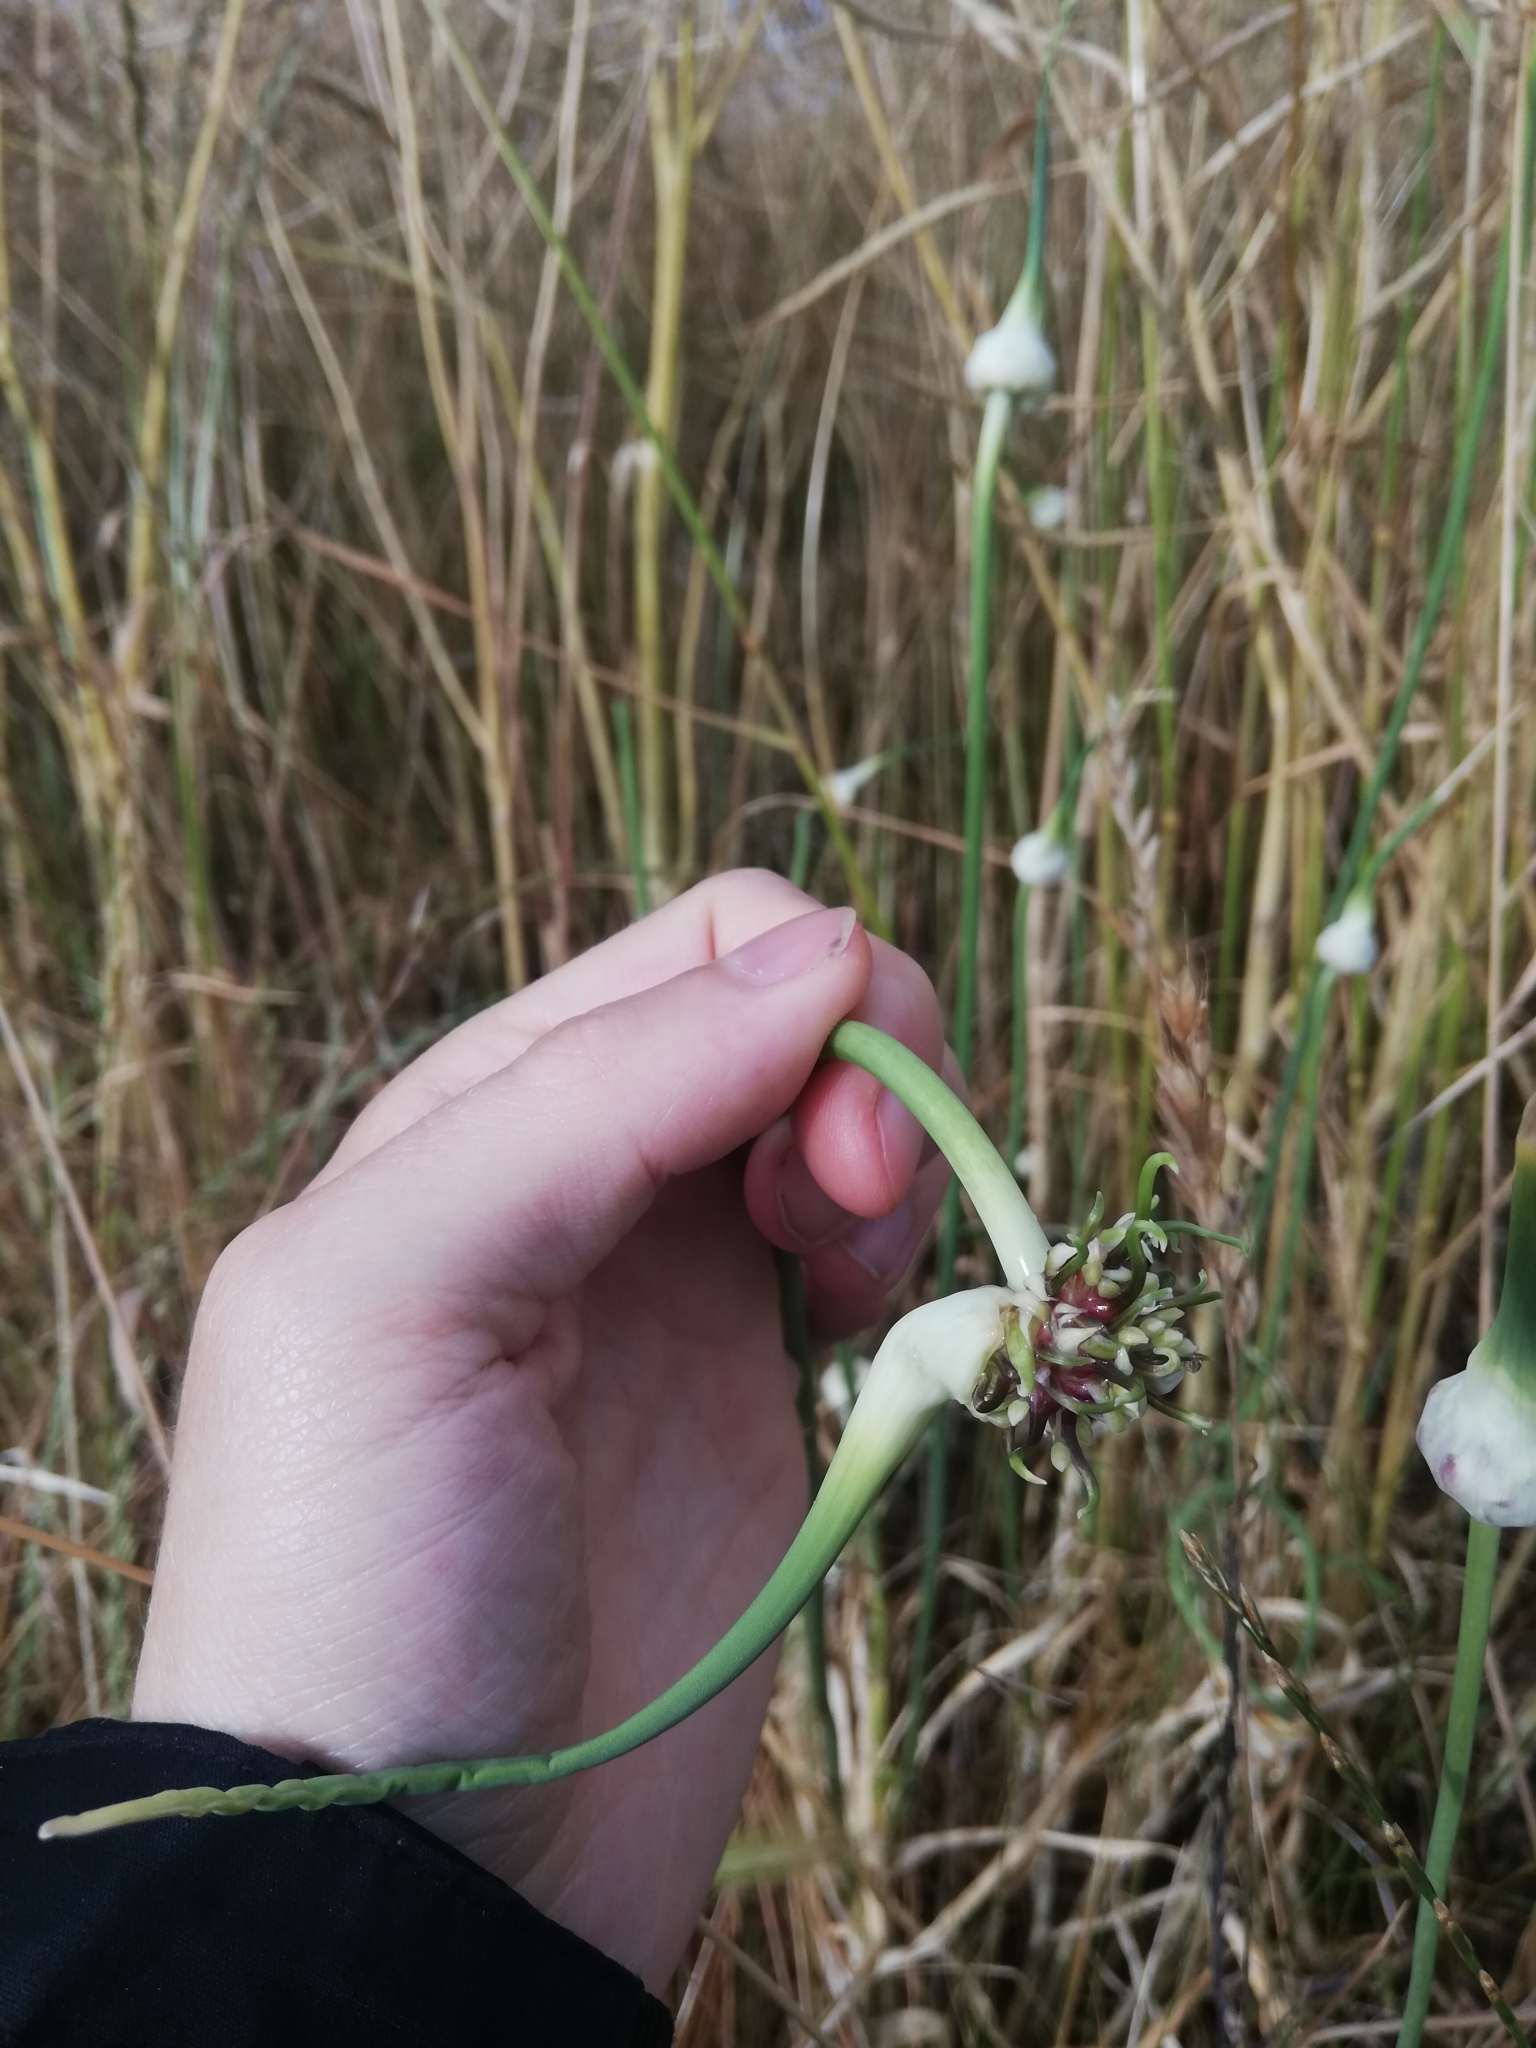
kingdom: Plantae
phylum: Tracheophyta
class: Liliopsida
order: Asparagales
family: Amaryllidaceae
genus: Allium
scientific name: Allium sativum
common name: Garlic
